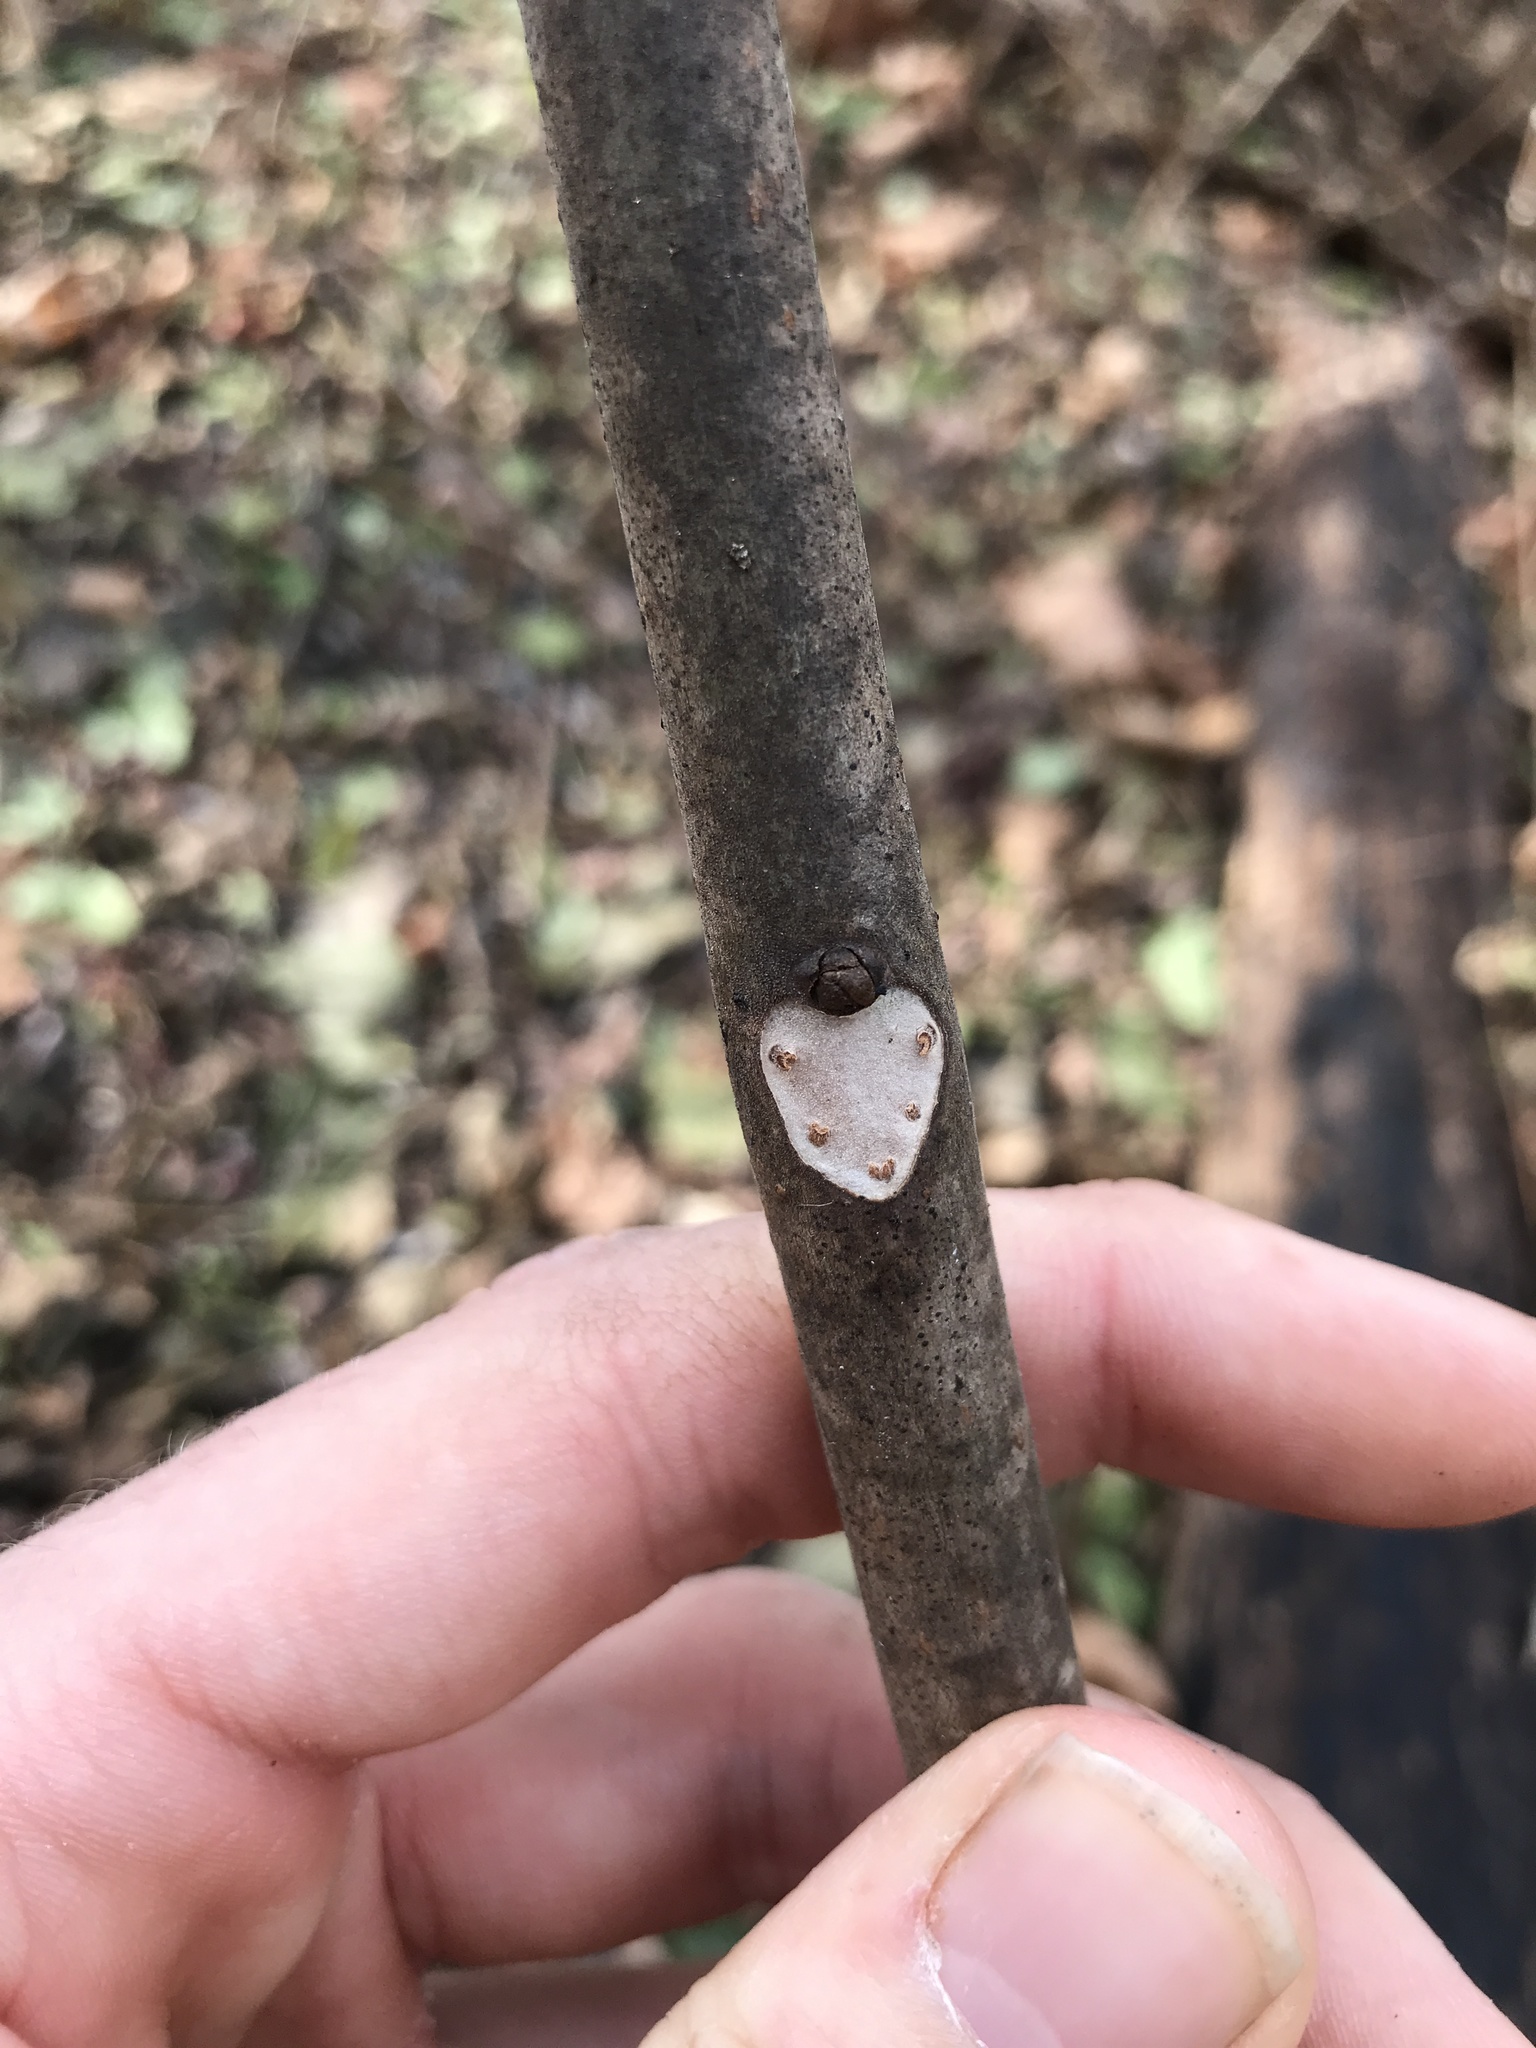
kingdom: Plantae
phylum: Tracheophyta
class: Magnoliopsida
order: Sapindales
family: Meliaceae
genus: Toona
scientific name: Toona sinensis
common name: Red toon
